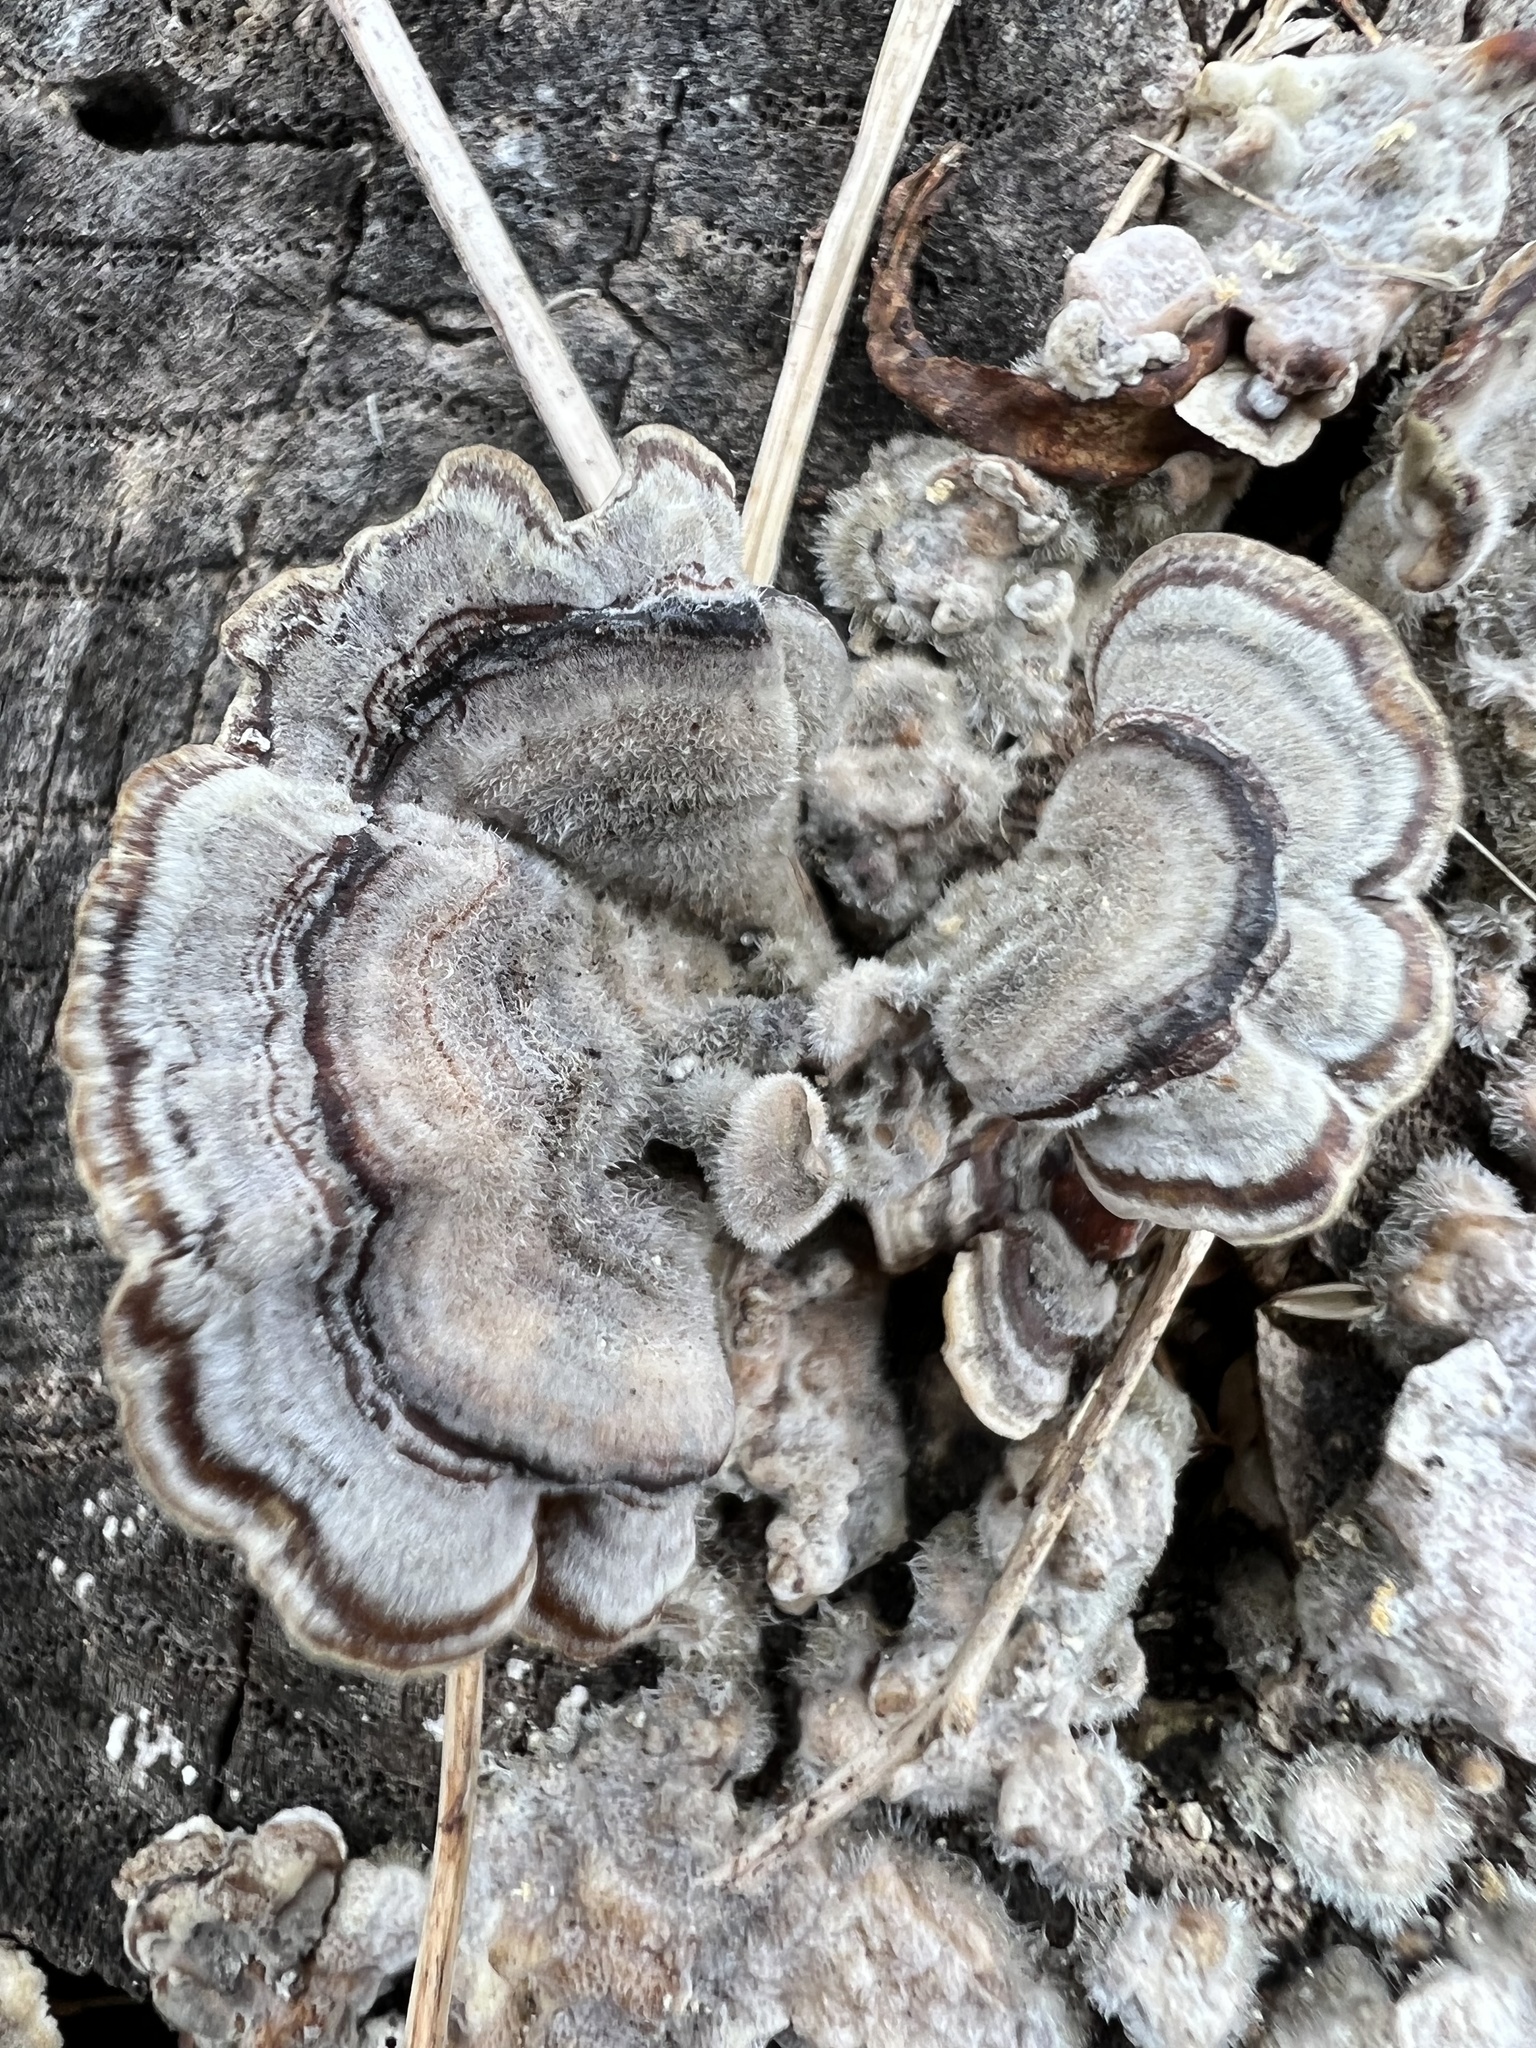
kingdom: Fungi
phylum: Basidiomycota
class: Agaricomycetes
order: Polyporales
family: Polyporaceae
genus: Trametes
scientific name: Trametes versicolor
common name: Turkeytail
